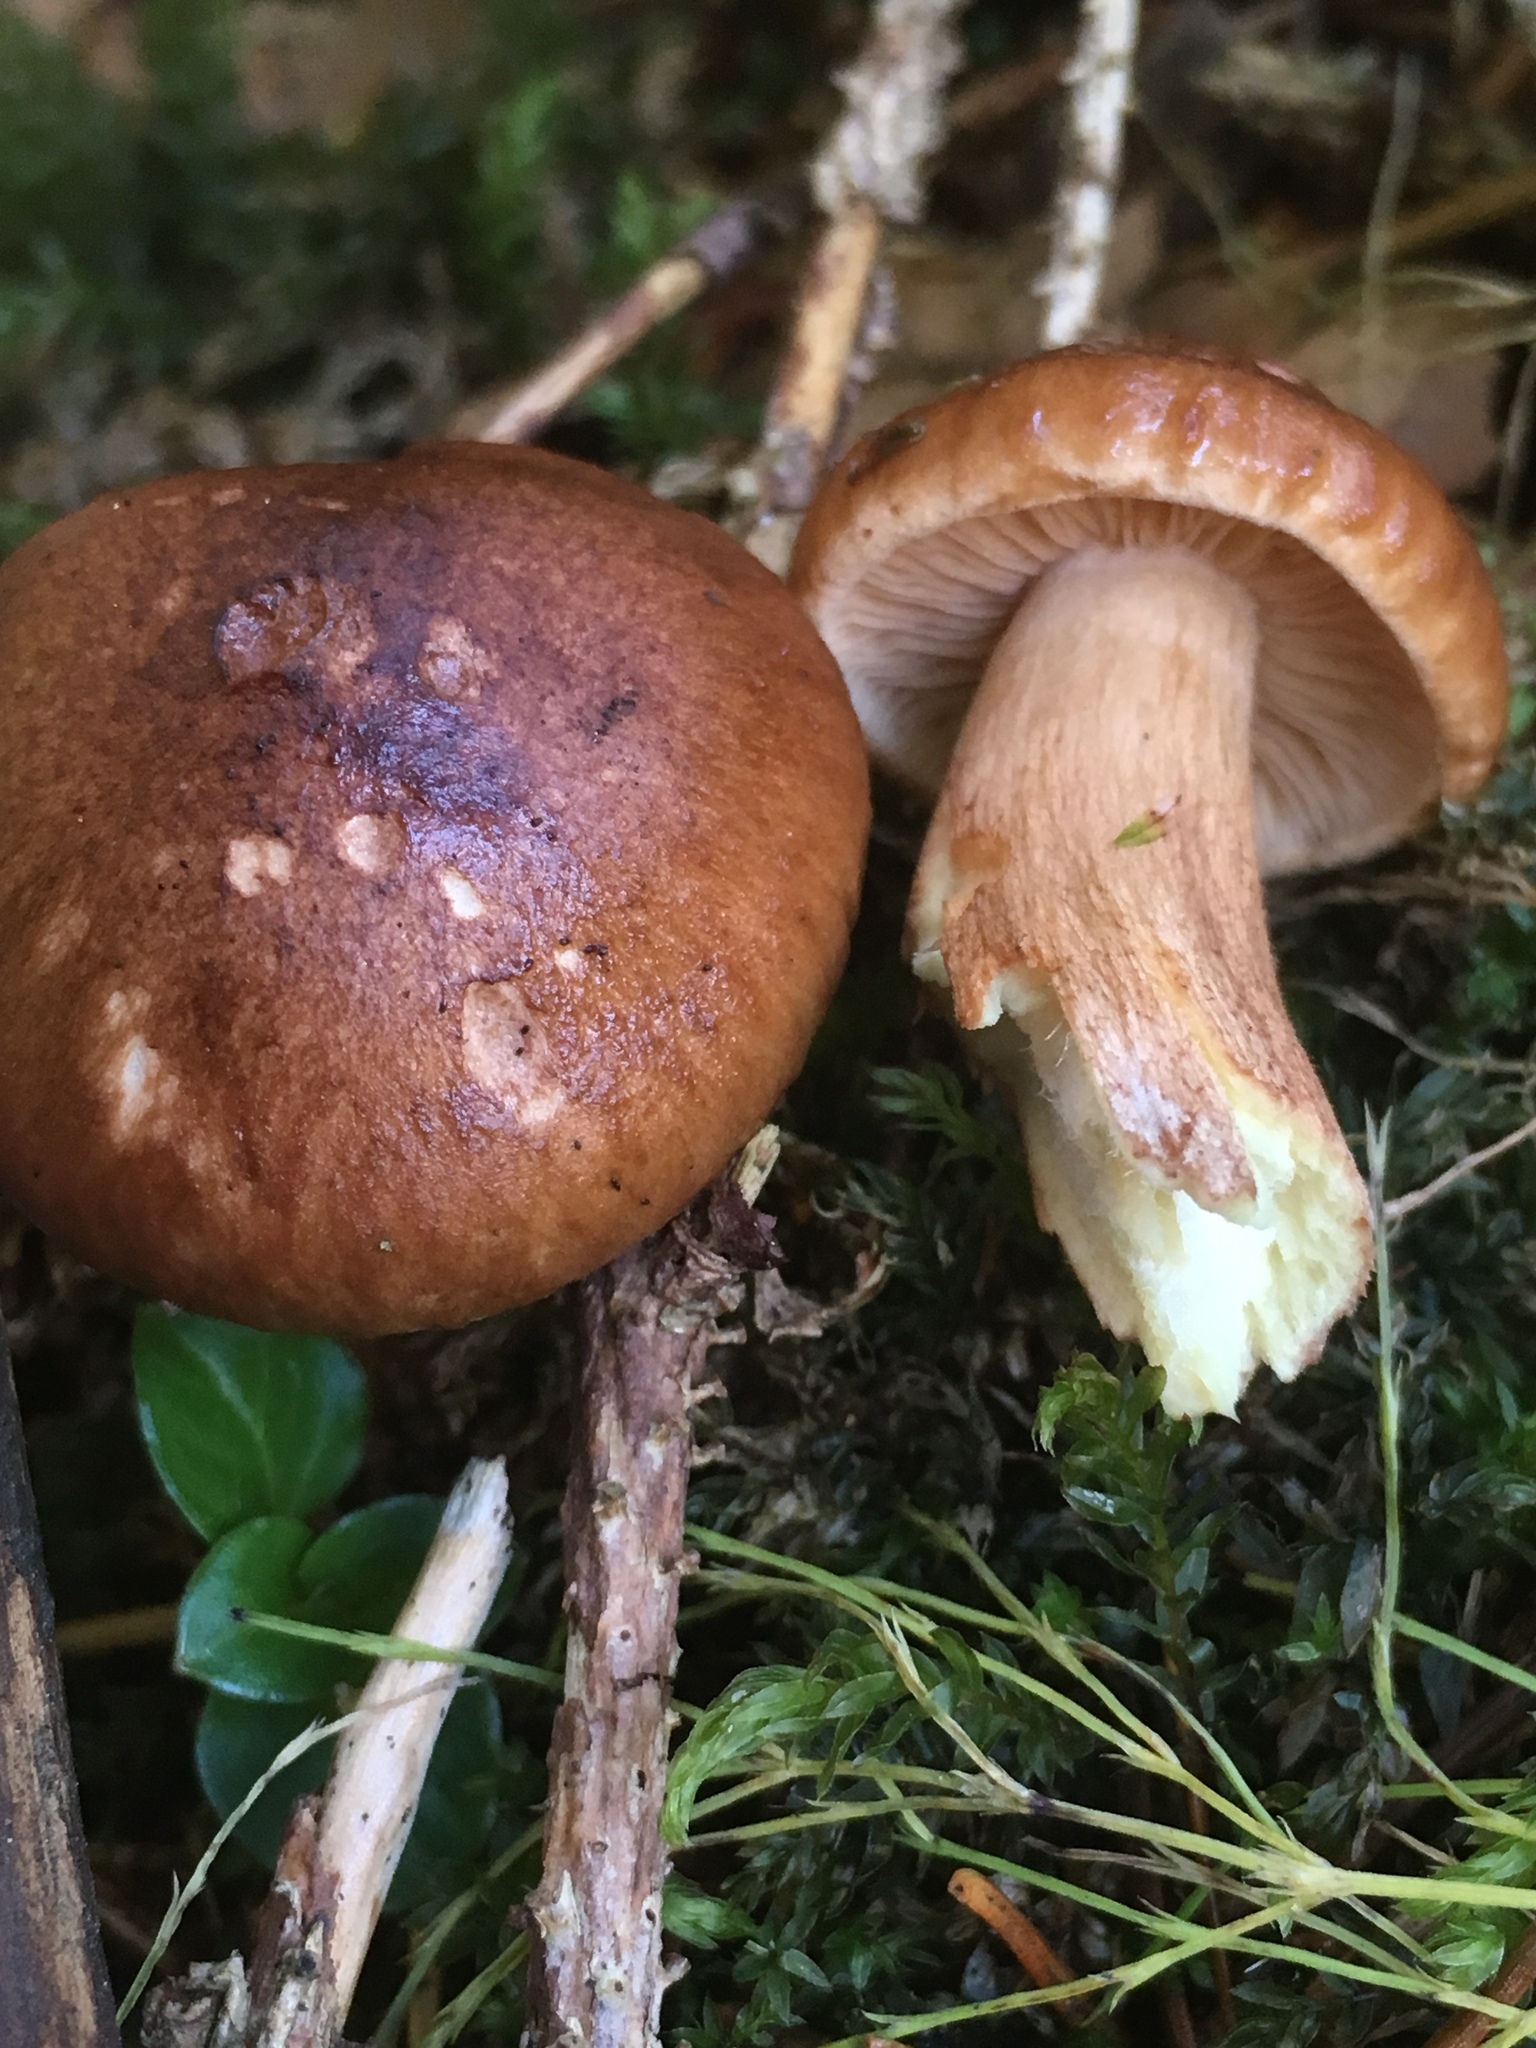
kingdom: Fungi
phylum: Basidiomycota
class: Agaricomycetes
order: Agaricales
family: Tricholomataceae
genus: Tricholoma
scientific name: Tricholoma fulvum
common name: Birch knight
